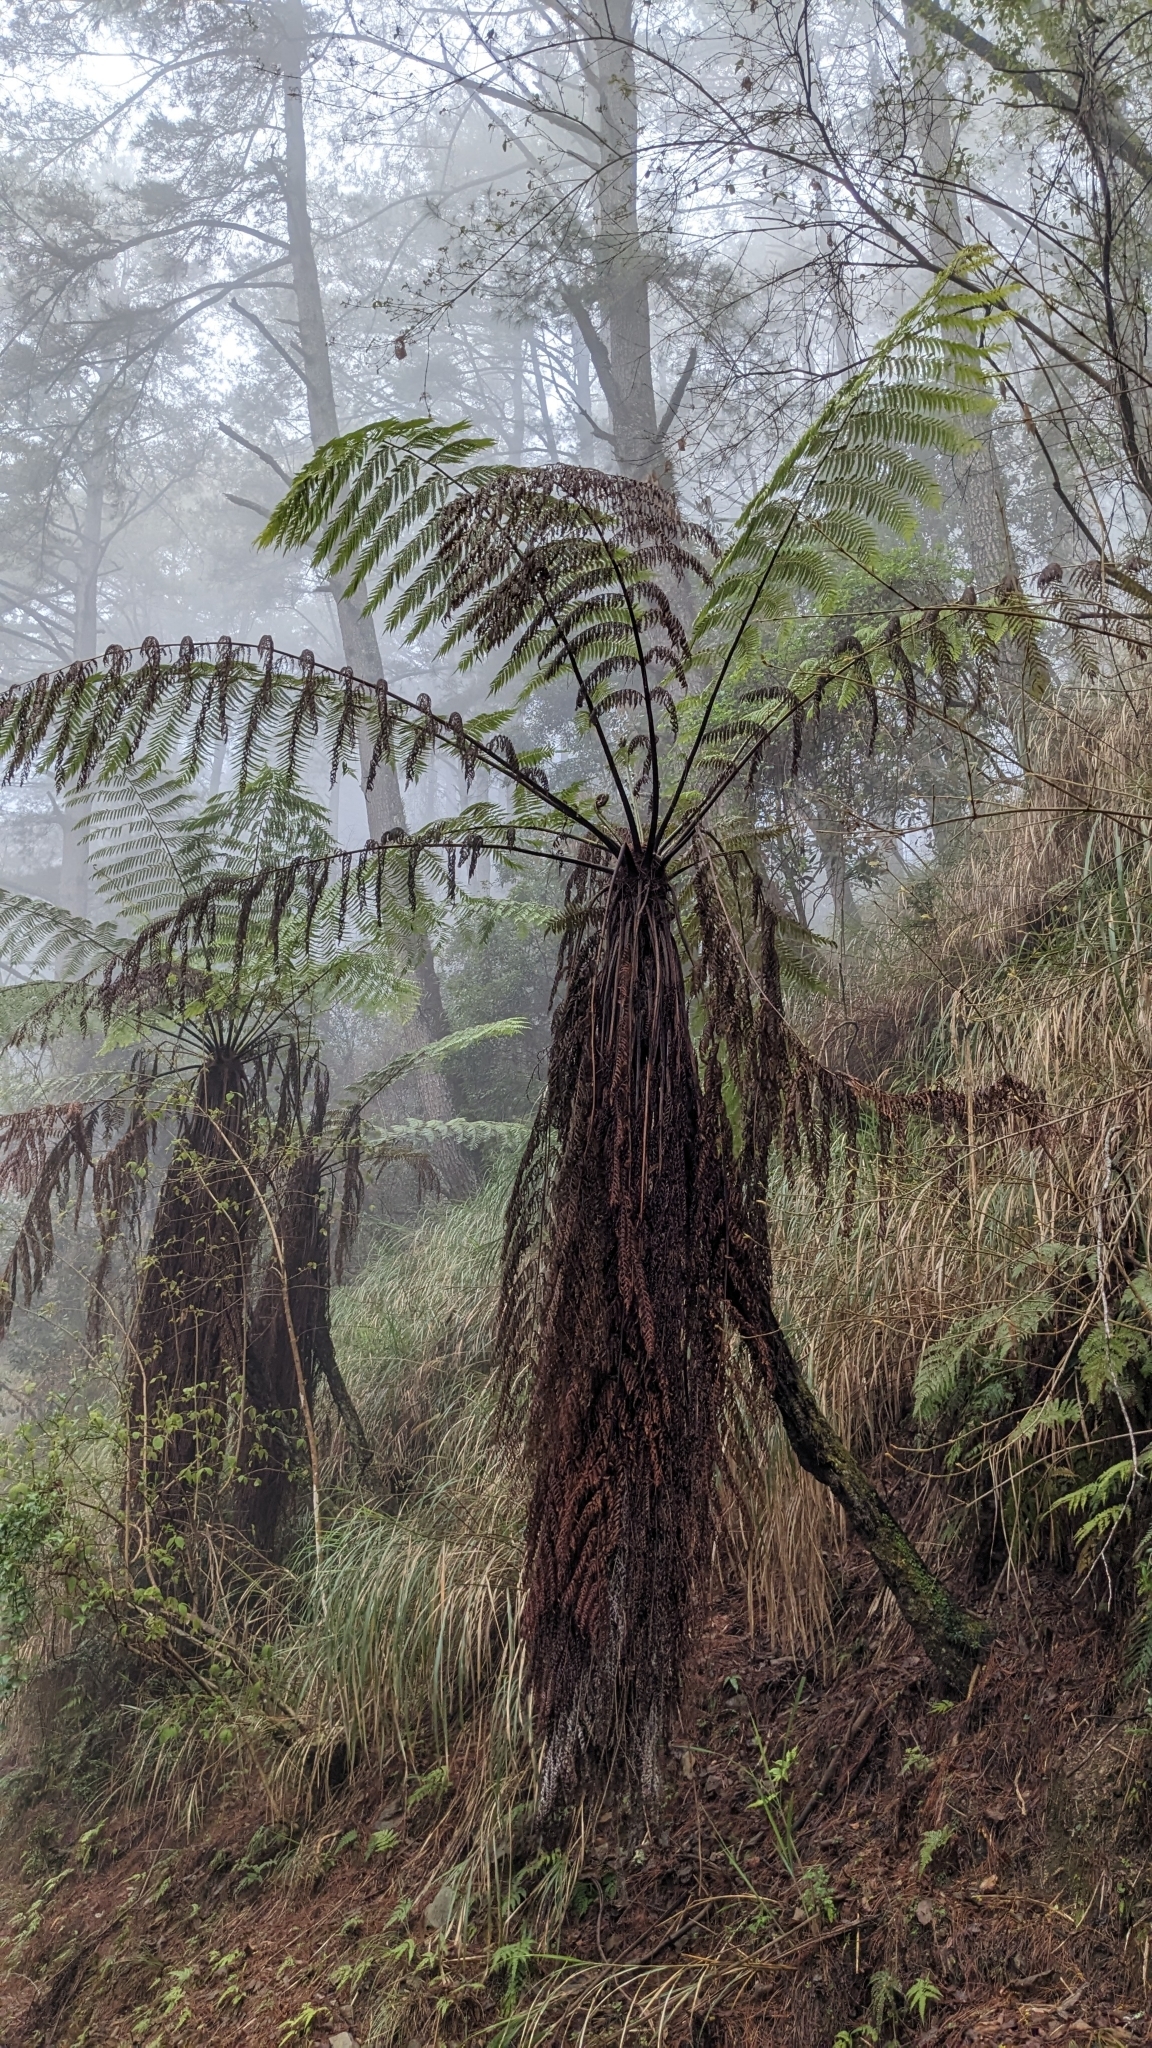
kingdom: Plantae
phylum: Tracheophyta
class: Polypodiopsida
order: Cyatheales
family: Cyatheaceae
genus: Alsophila
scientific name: Alsophila spinulosa
